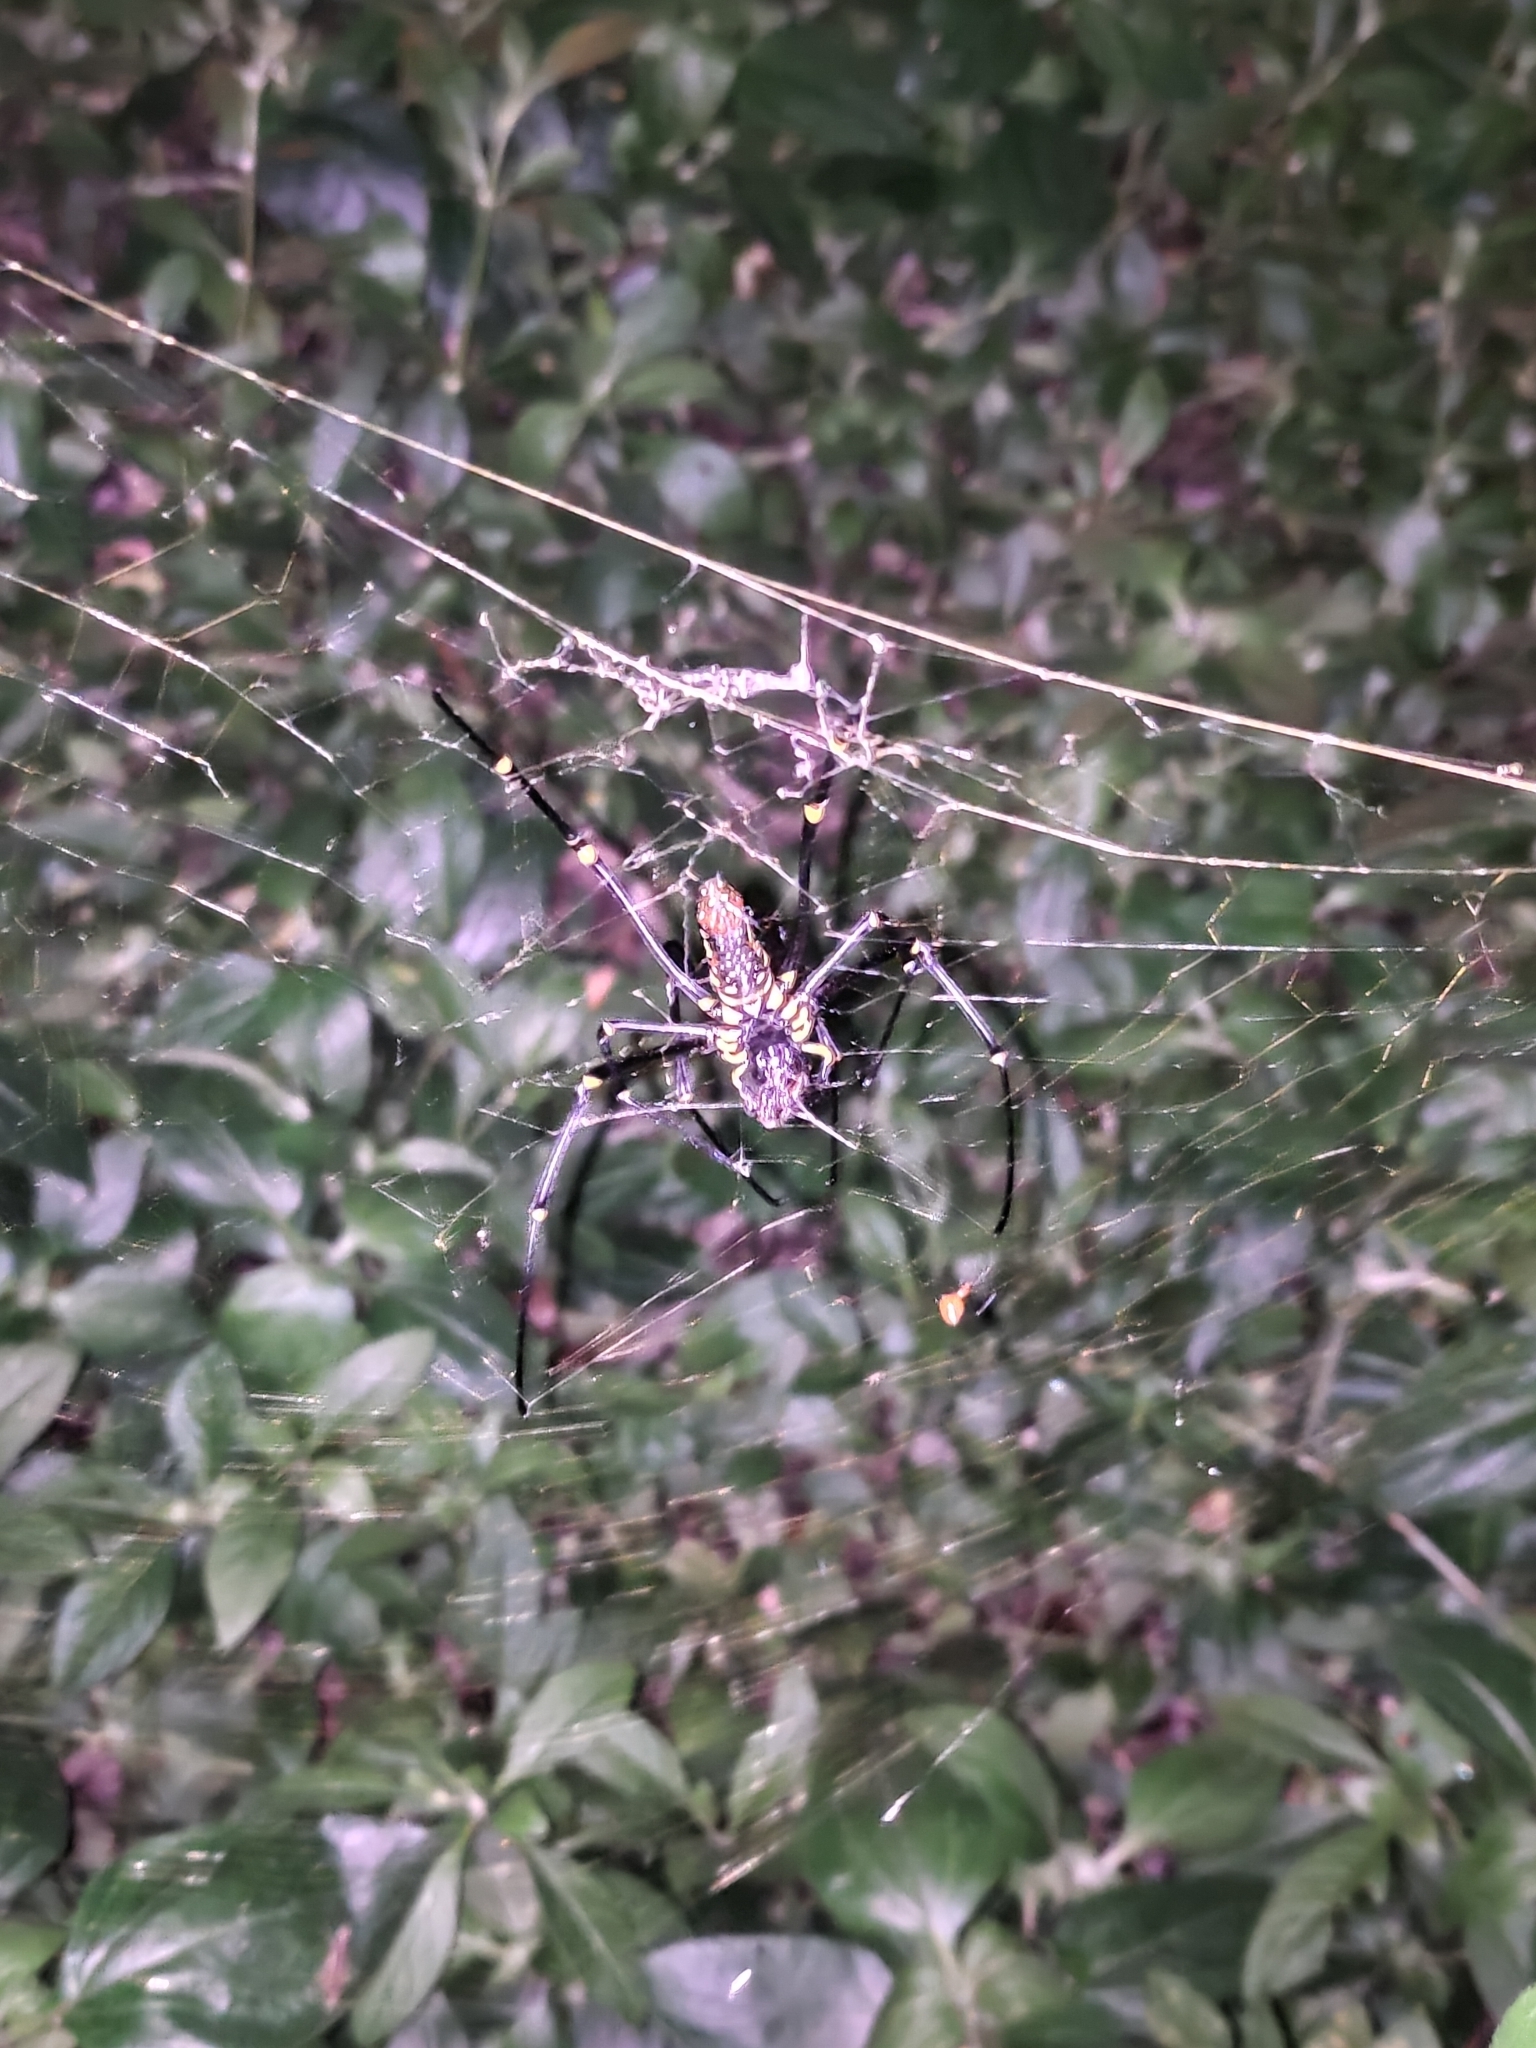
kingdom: Animalia
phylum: Arthropoda
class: Arachnida
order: Araneae
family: Araneidae
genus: Nephila
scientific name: Nephila pilipes
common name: Giant golden orb weaver
